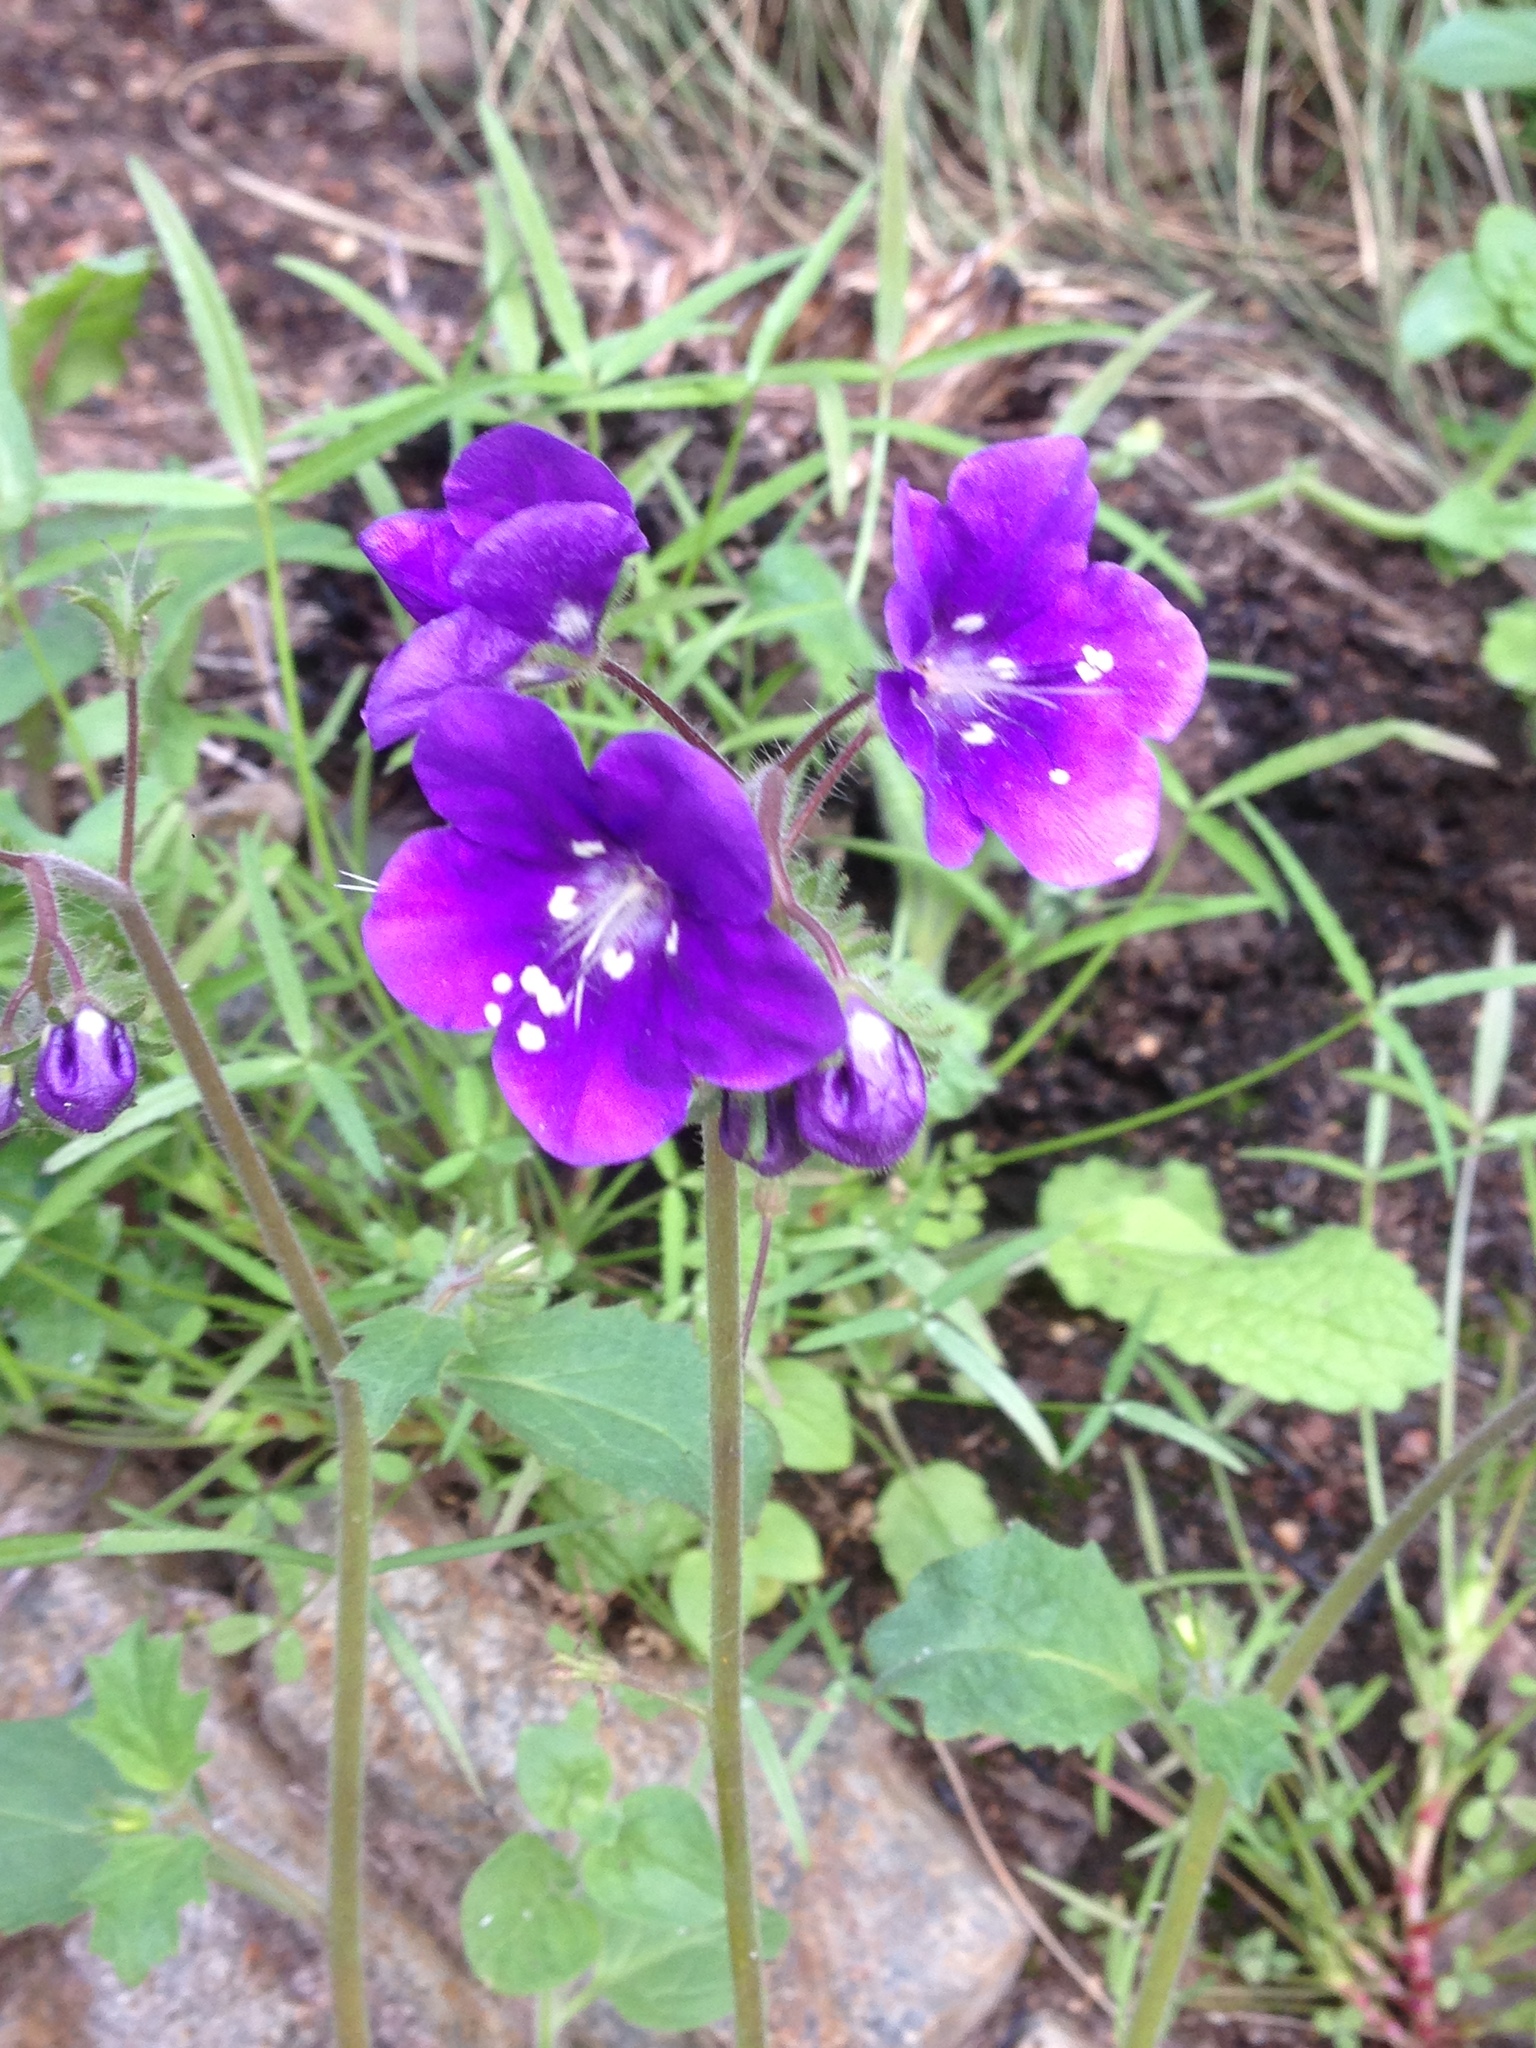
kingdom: Plantae
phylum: Tracheophyta
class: Magnoliopsida
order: Boraginales
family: Hydrophyllaceae
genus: Phacelia
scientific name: Phacelia parryi
